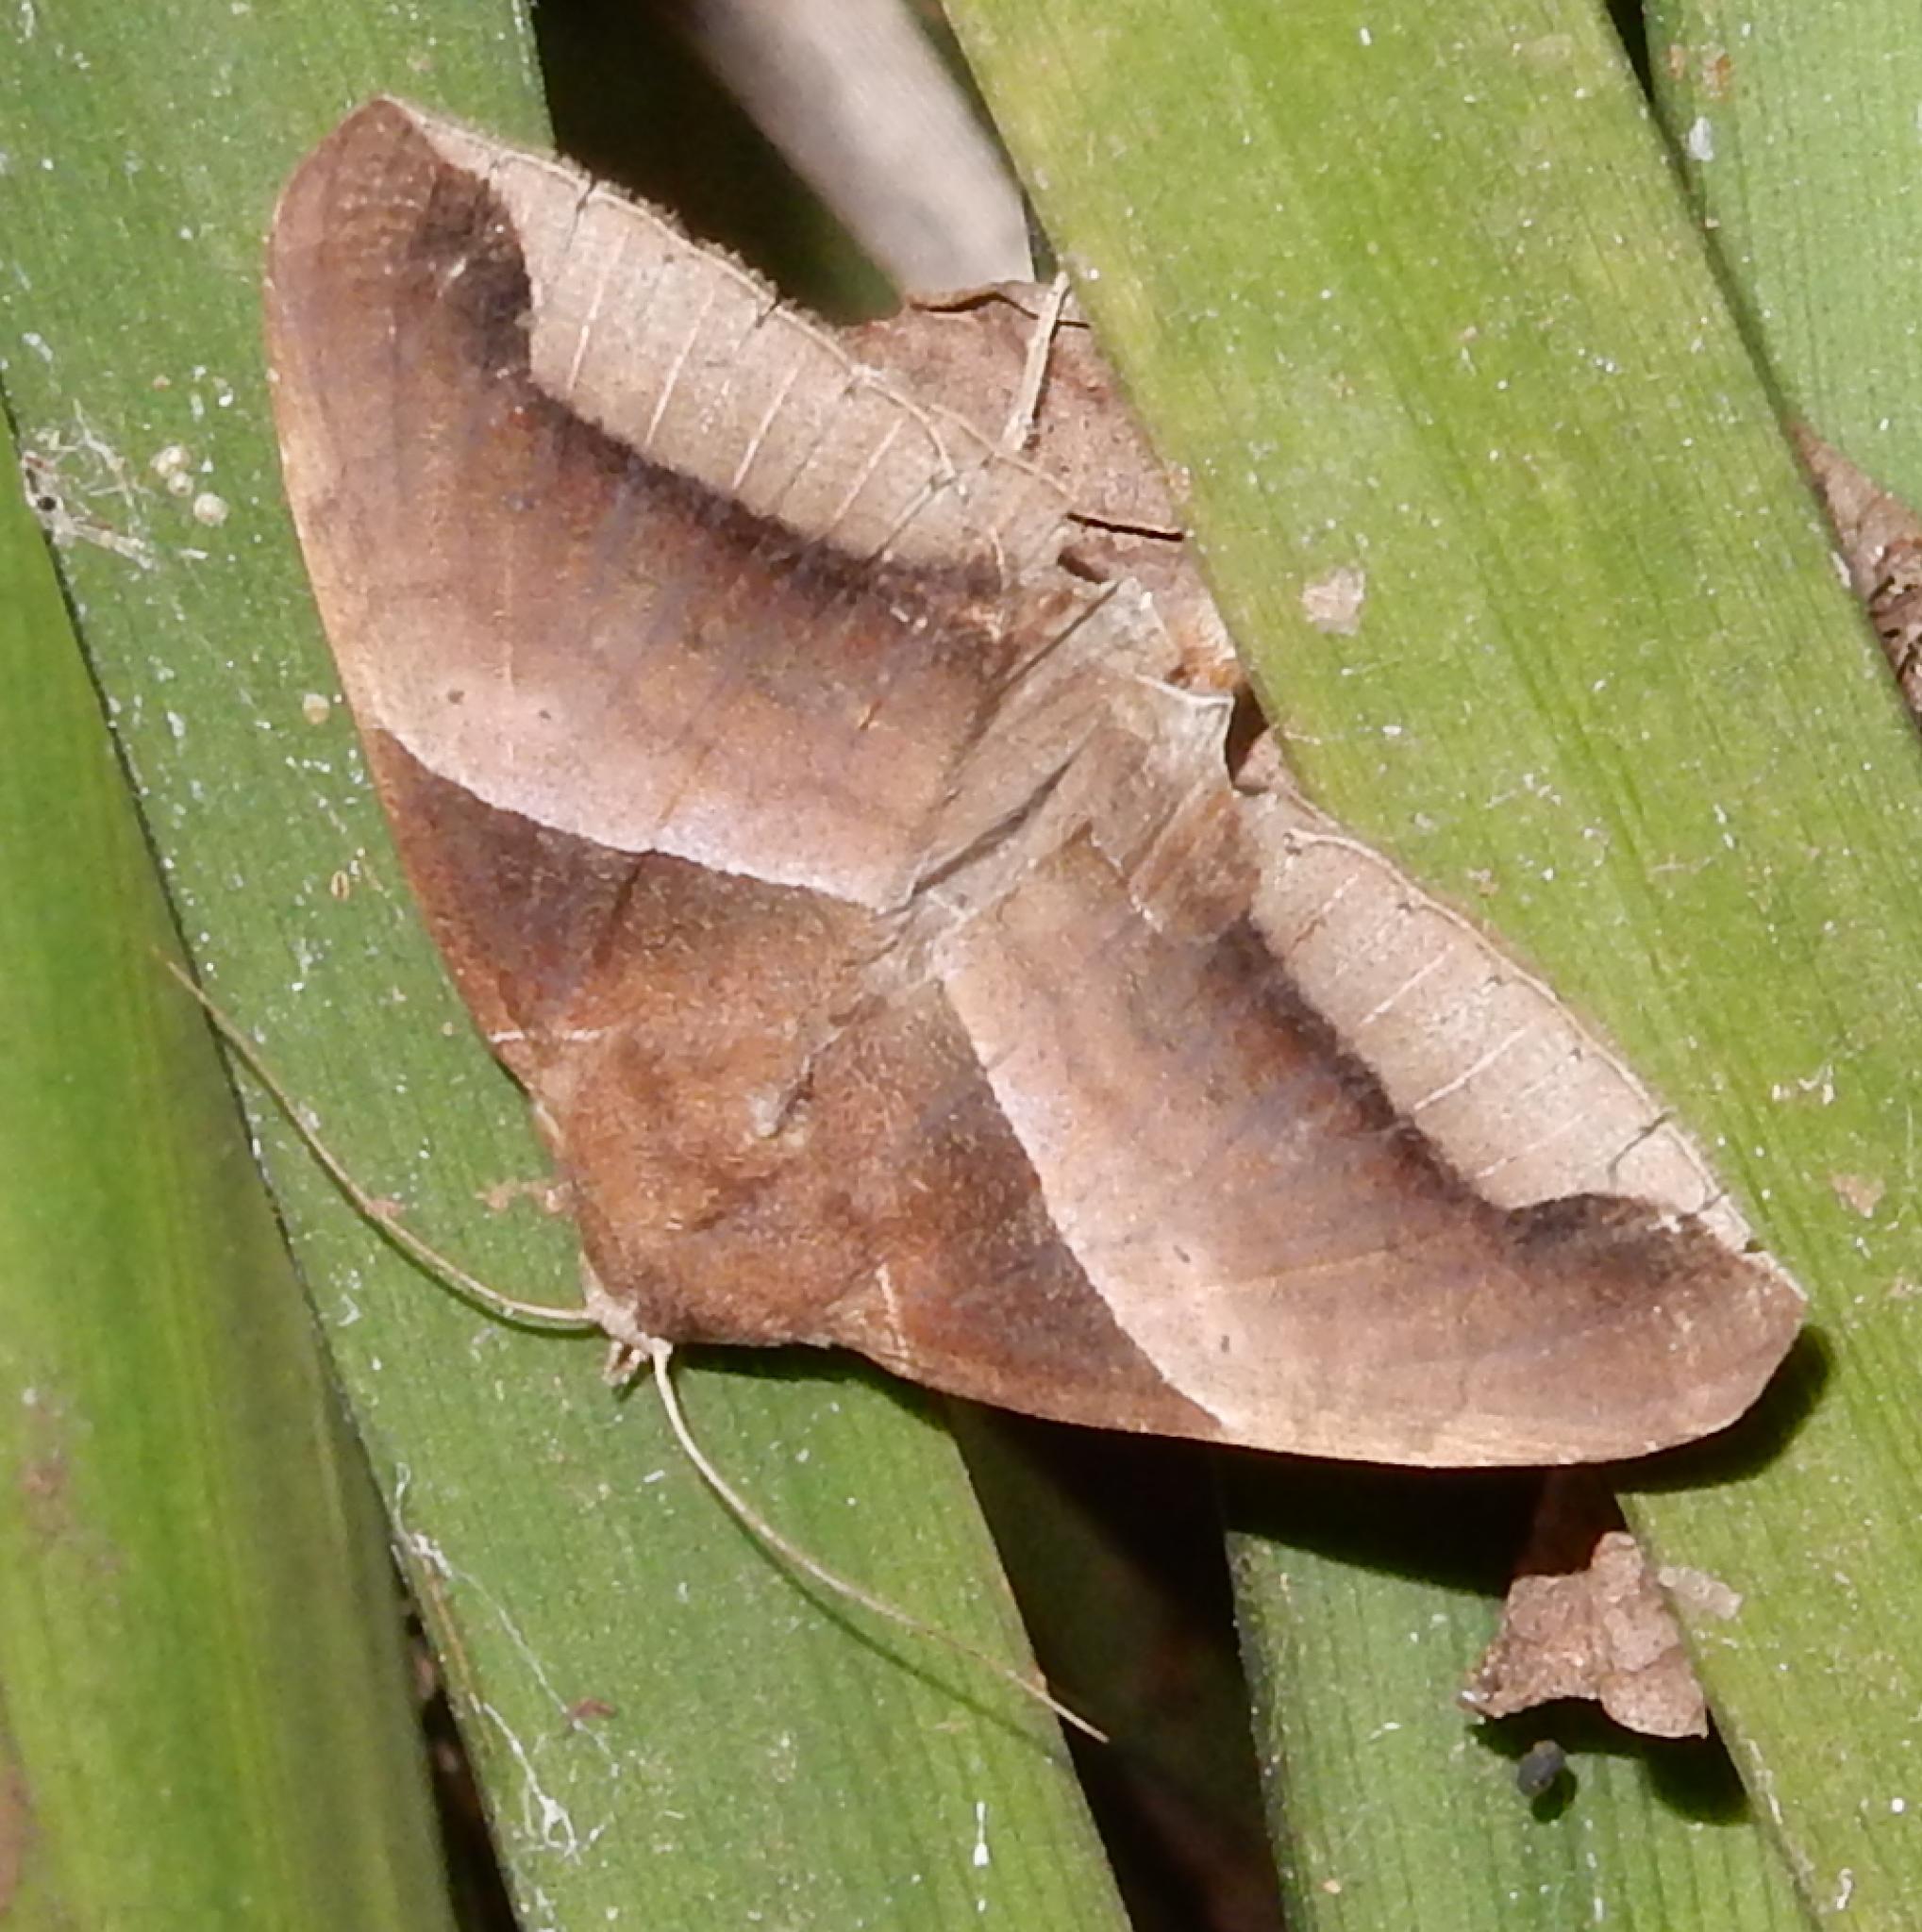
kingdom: Animalia
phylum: Arthropoda
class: Insecta
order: Lepidoptera
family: Erebidae
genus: Achaea
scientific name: Achaea echo
